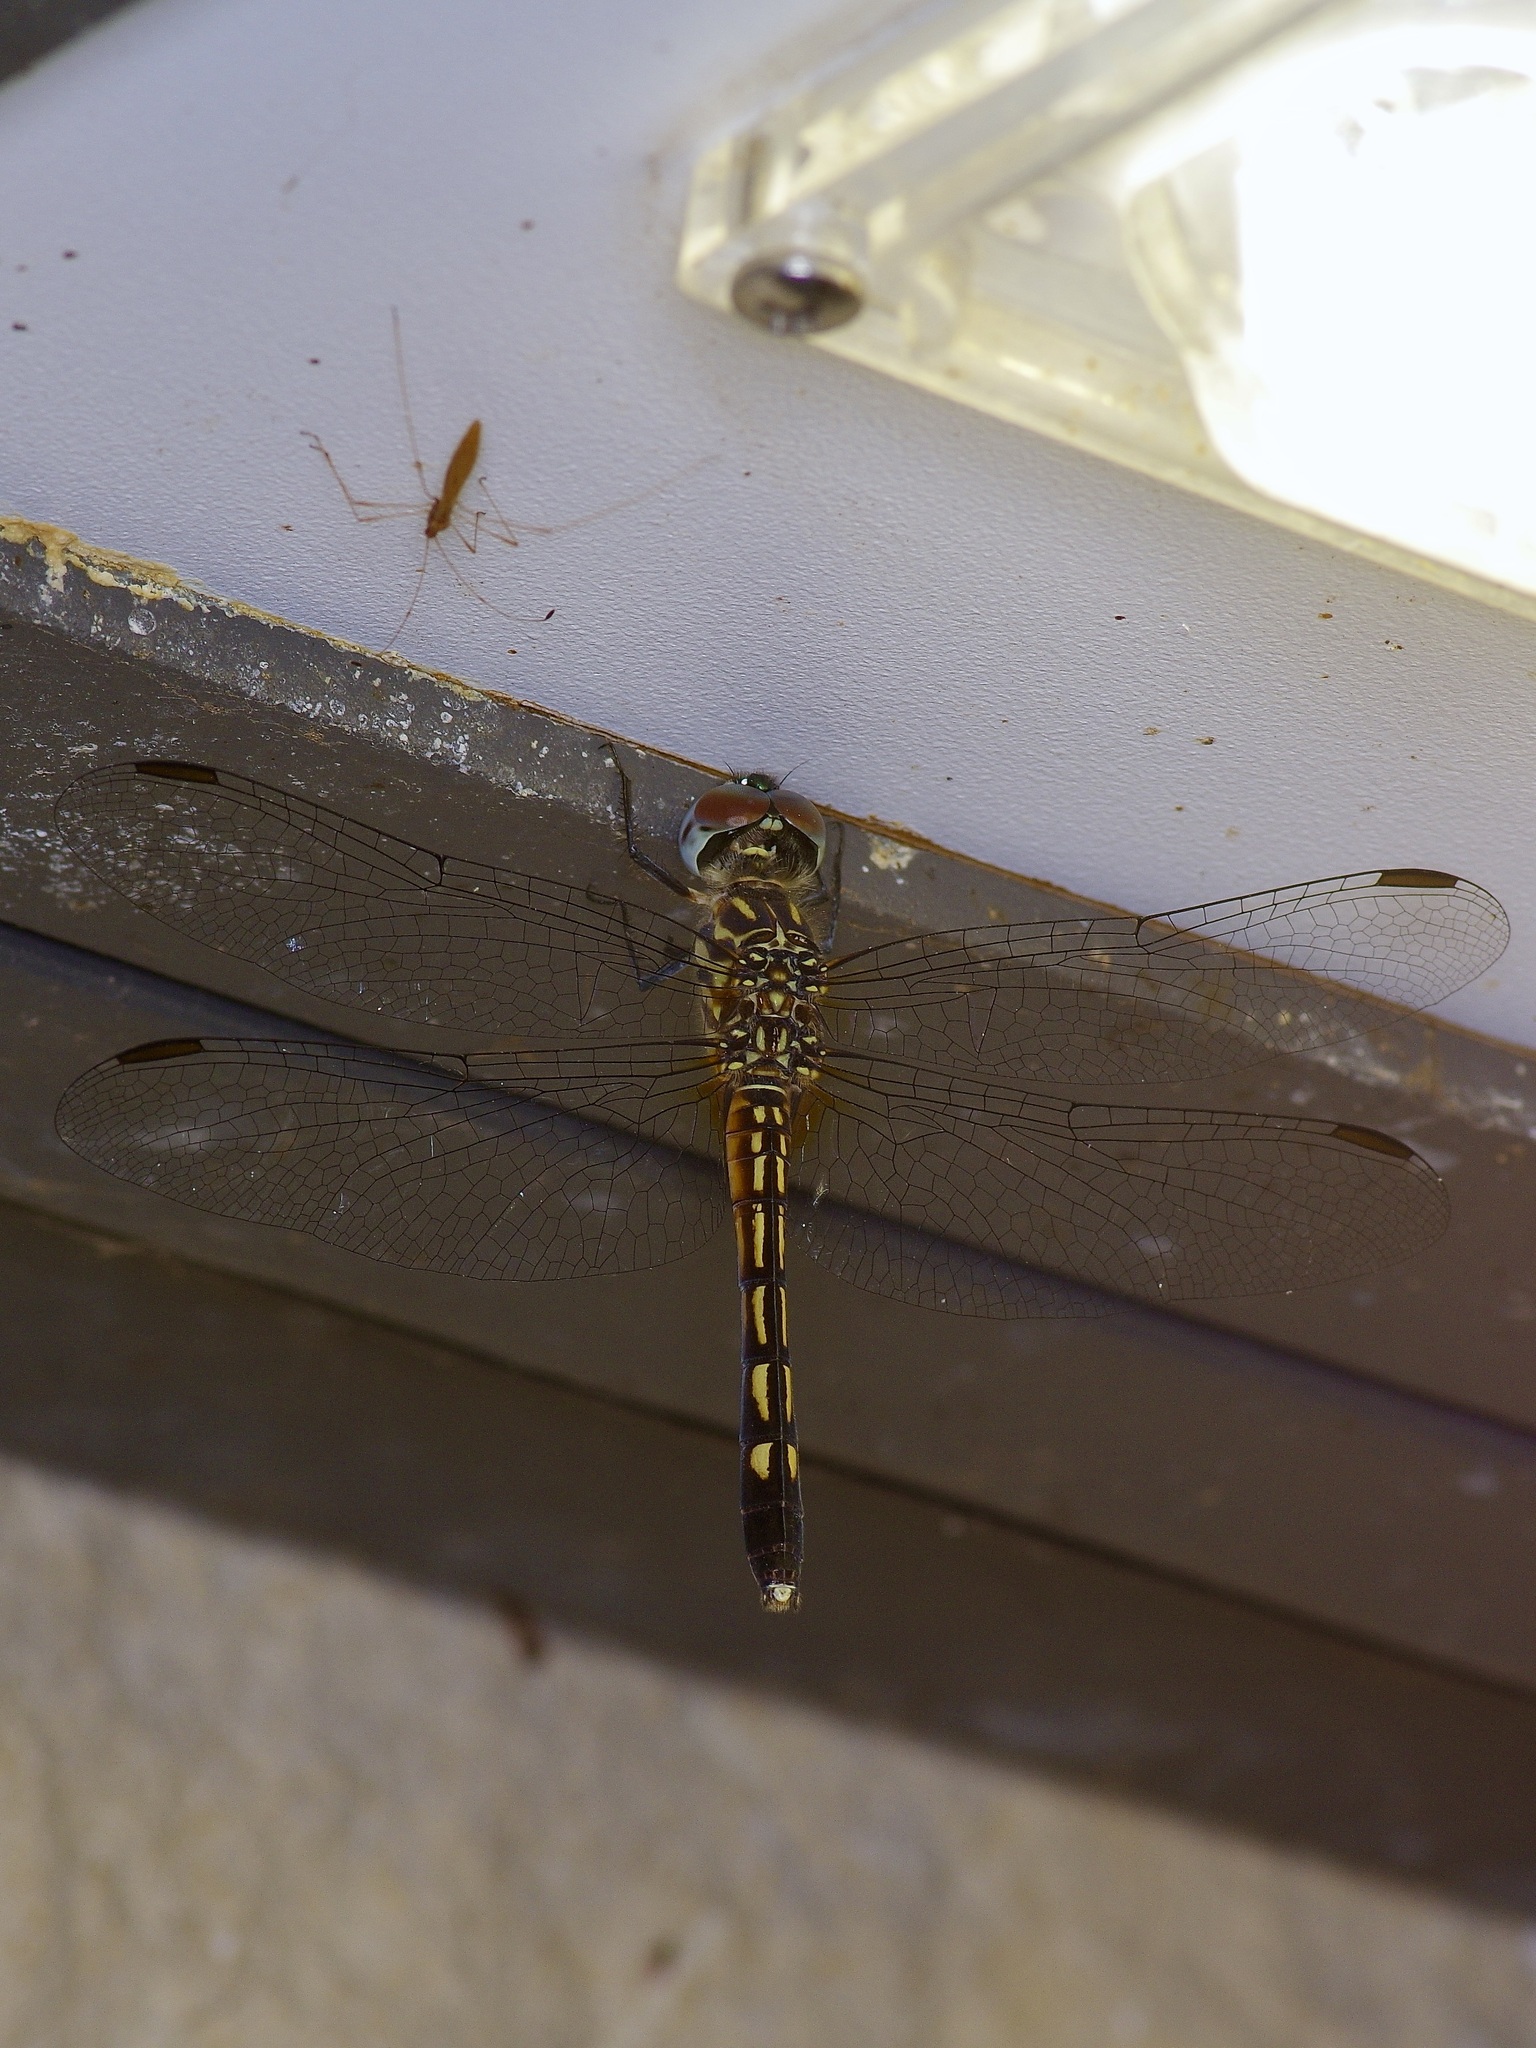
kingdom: Animalia
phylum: Arthropoda
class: Insecta
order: Odonata
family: Libellulidae
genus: Pachydiplax
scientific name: Pachydiplax longipennis
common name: Blue dasher
